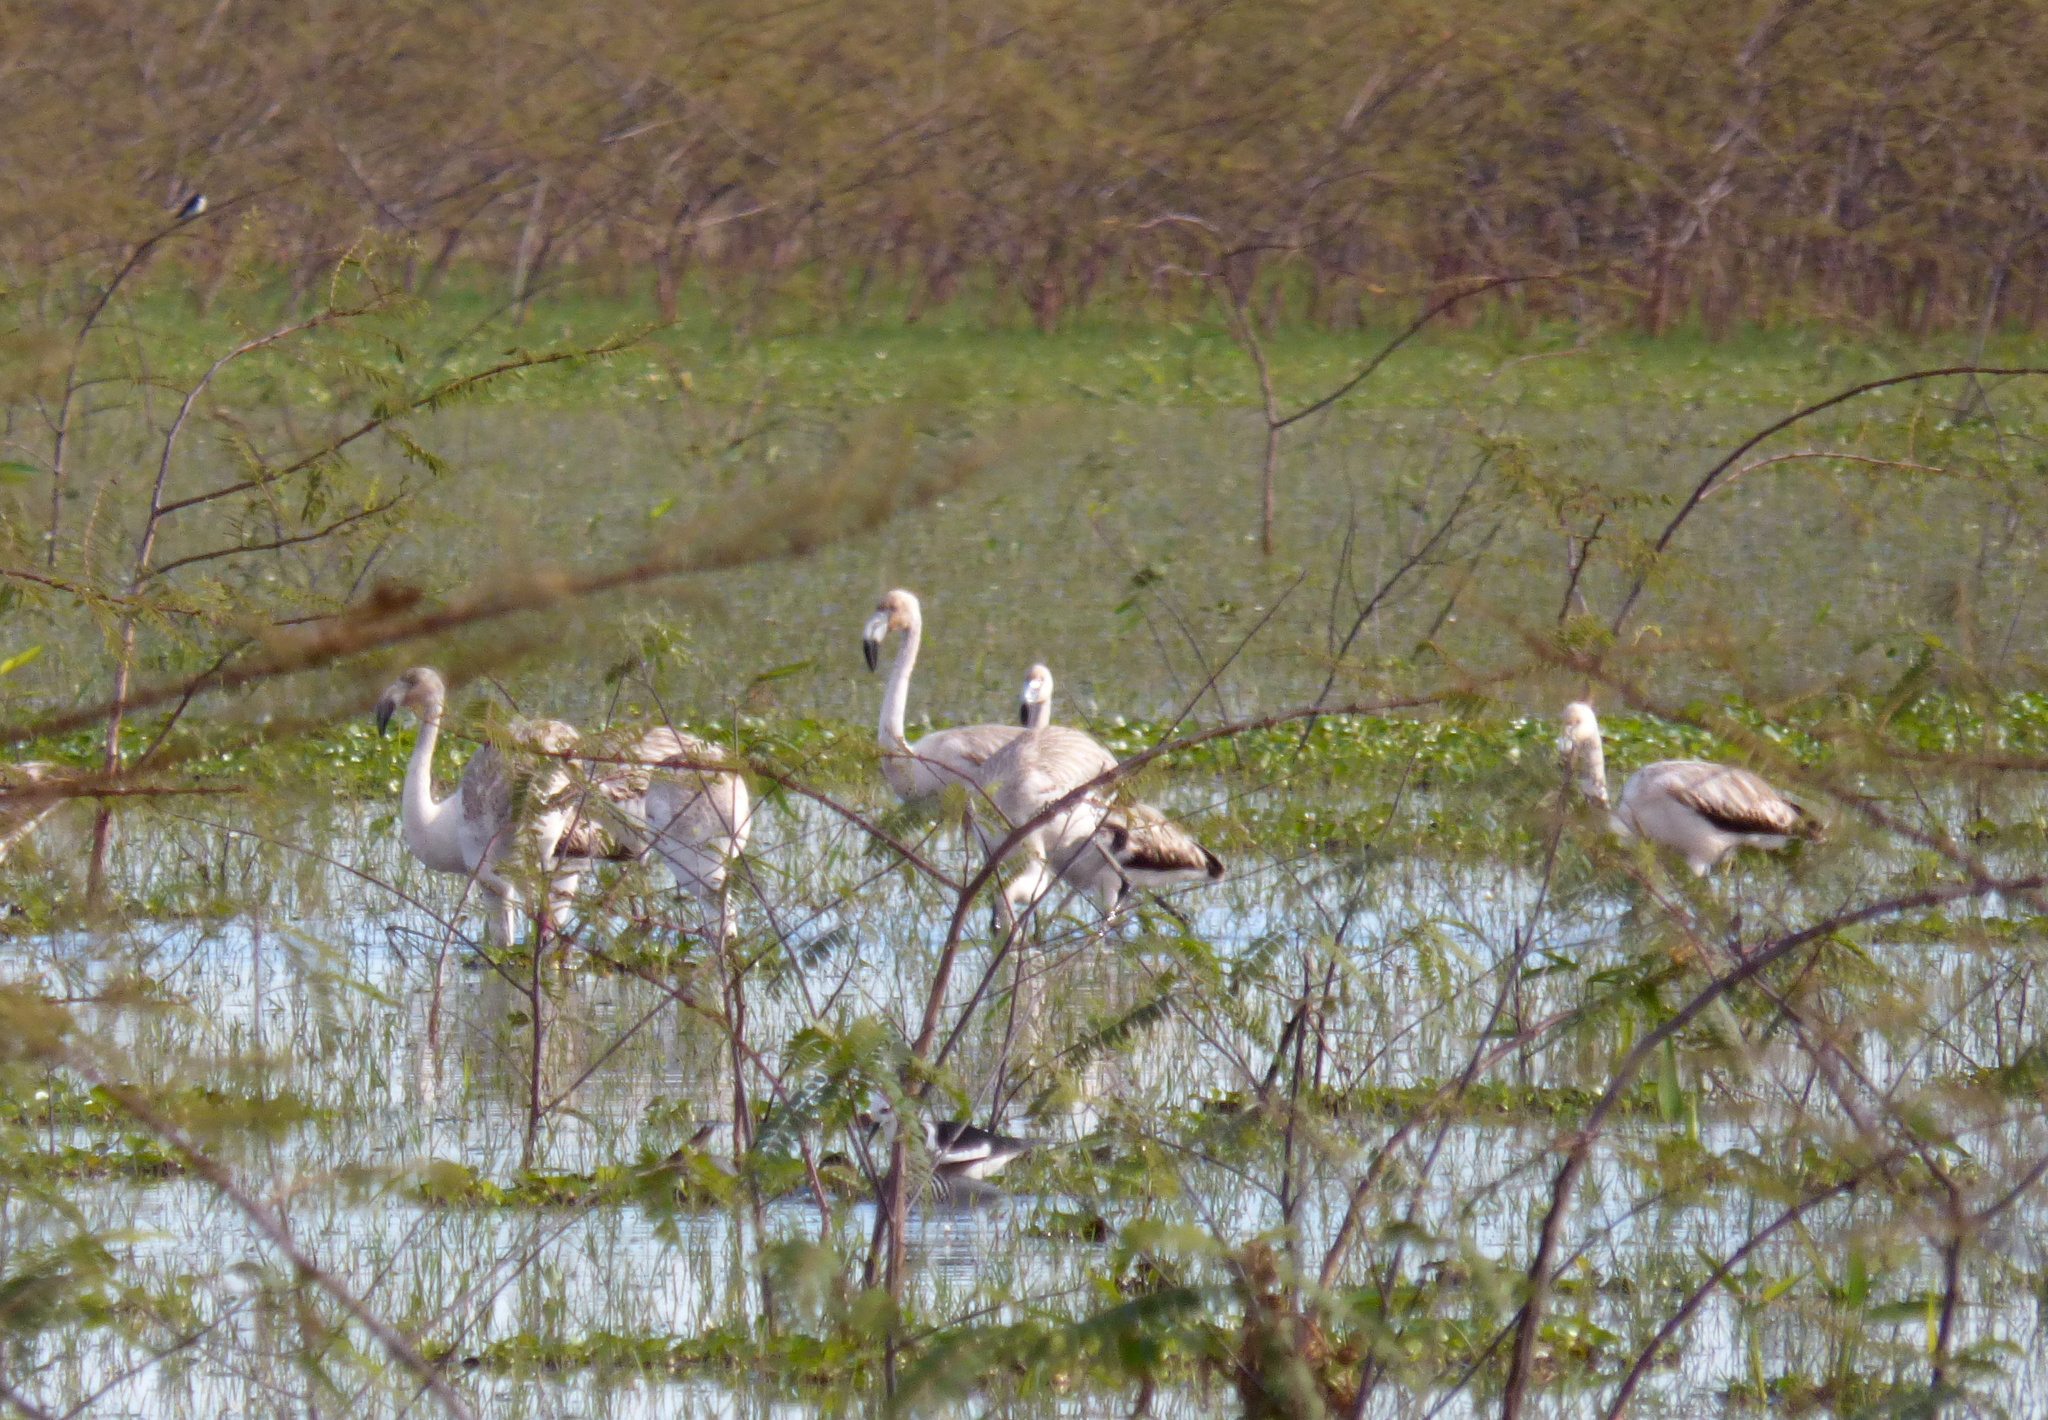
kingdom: Animalia
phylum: Chordata
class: Aves
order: Phoenicopteriformes
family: Phoenicopteridae
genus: Phoenicopterus
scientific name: Phoenicopterus chilensis
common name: Chilean flamingo
